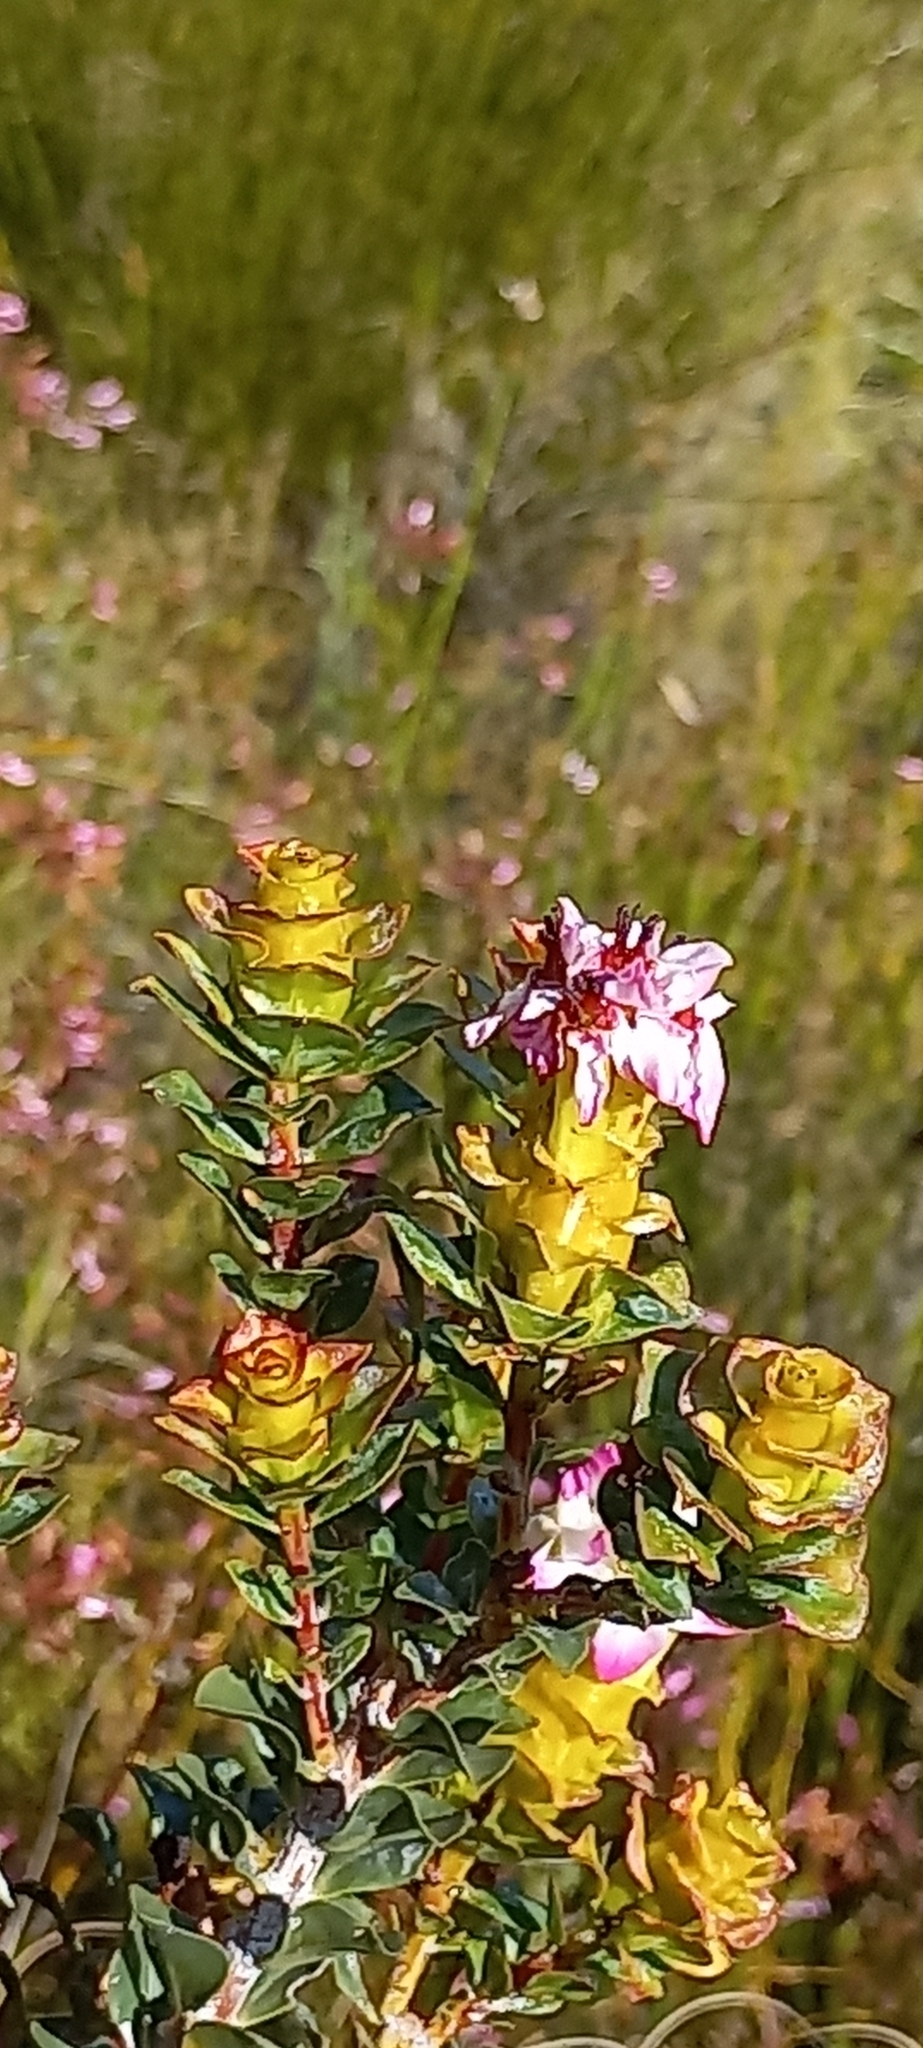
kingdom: Plantae
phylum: Tracheophyta
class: Magnoliopsida
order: Myrtales
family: Penaeaceae
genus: Saltera
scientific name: Saltera sarcocolla
